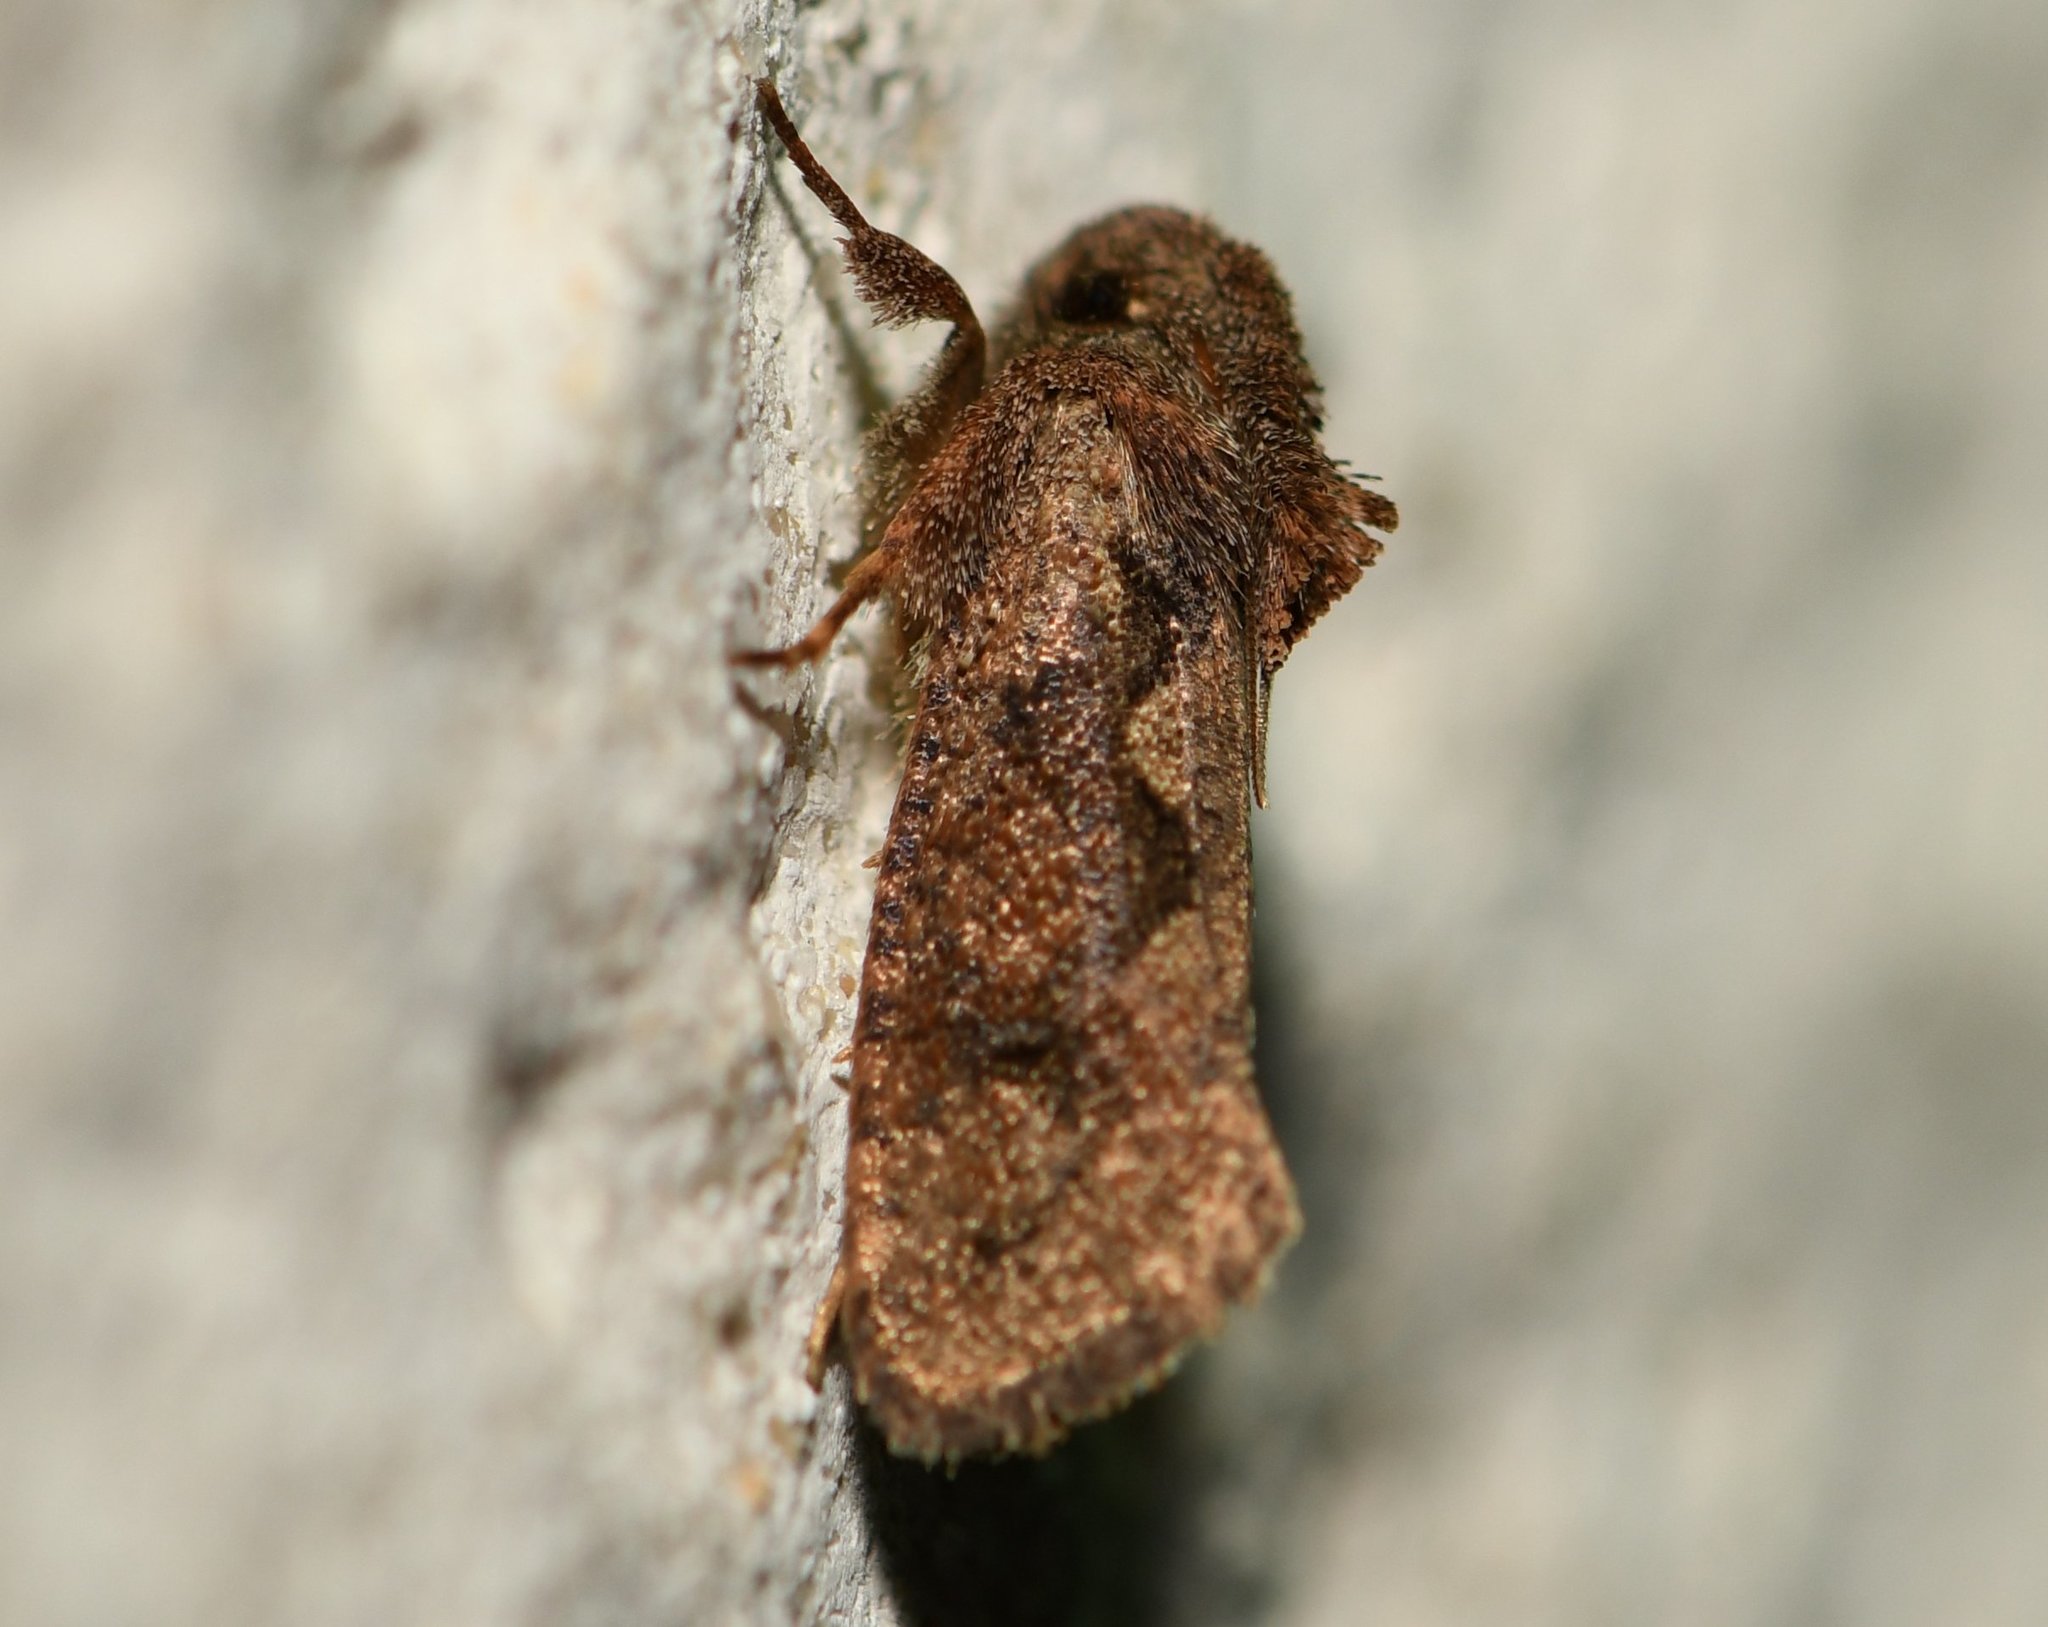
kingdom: Animalia
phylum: Arthropoda
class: Insecta
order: Lepidoptera
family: Tineidae
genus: Acrolophus
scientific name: Acrolophus walsinghami
